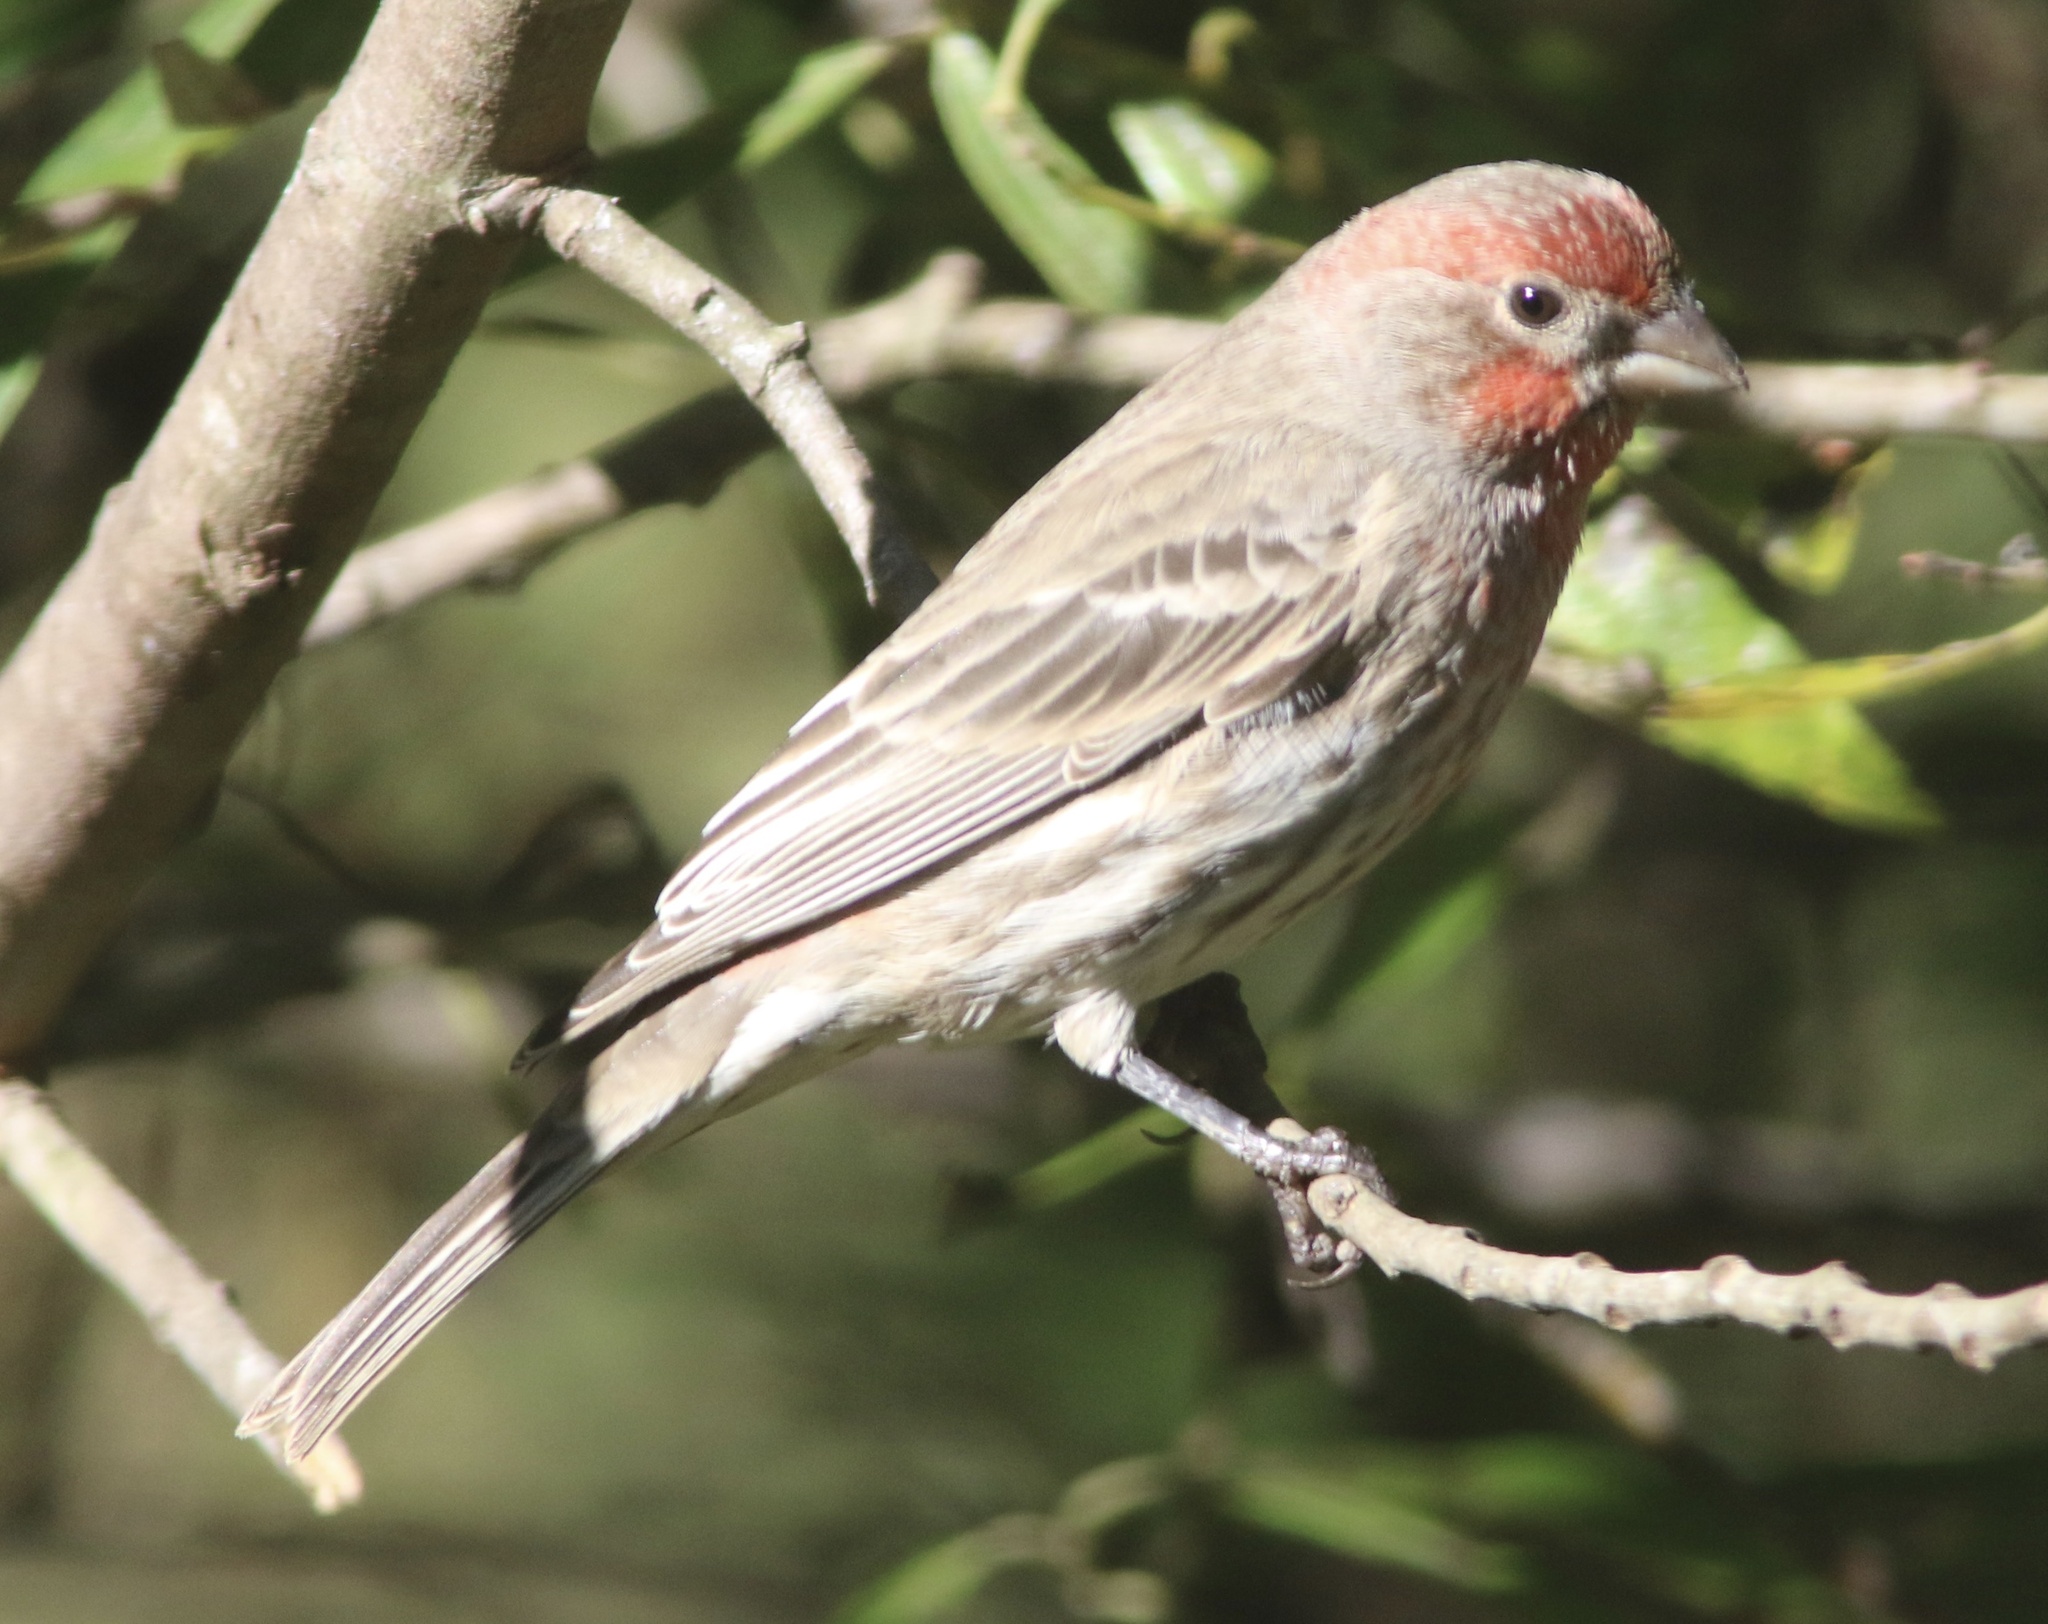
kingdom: Animalia
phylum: Chordata
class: Aves
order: Passeriformes
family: Fringillidae
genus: Haemorhous
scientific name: Haemorhous mexicanus
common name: House finch
